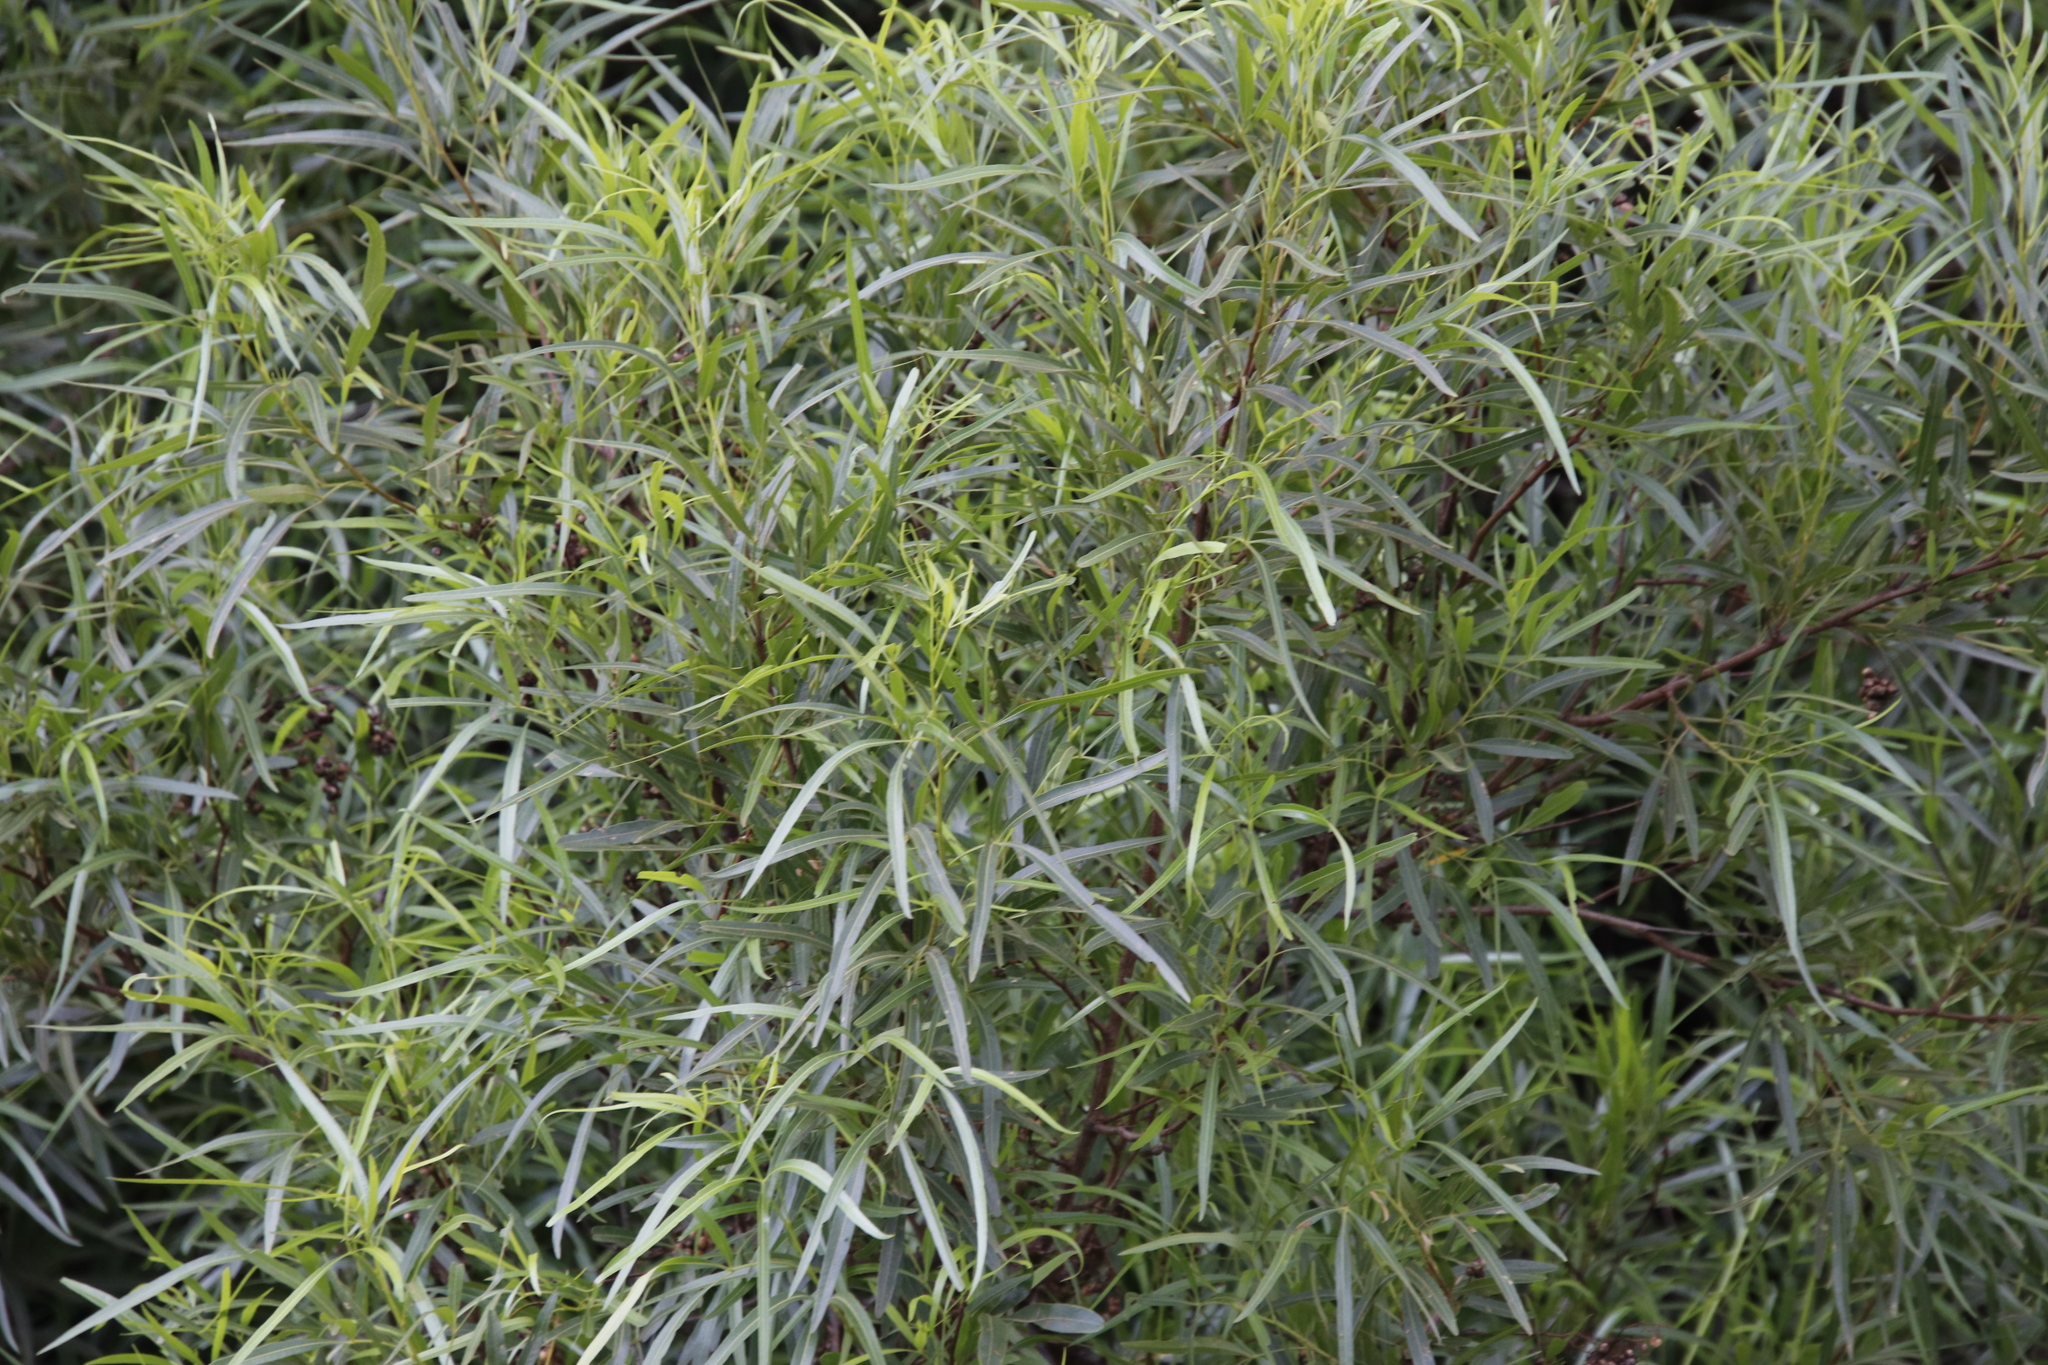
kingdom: Plantae
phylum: Tracheophyta
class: Magnoliopsida
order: Sapindales
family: Anacardiaceae
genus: Searsia
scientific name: Searsia lancea
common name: Cashew
